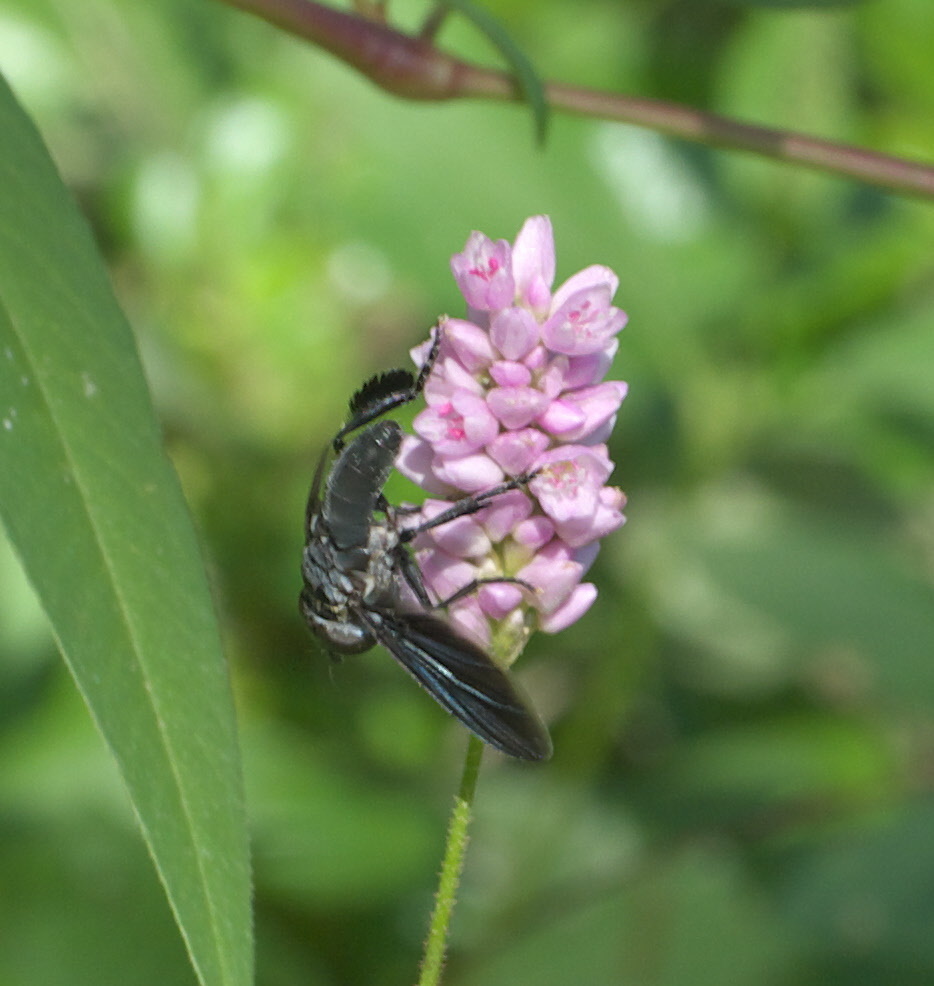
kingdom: Animalia
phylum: Arthropoda
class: Insecta
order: Diptera
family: Tachinidae
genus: Trichopoda
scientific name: Trichopoda lanipes
